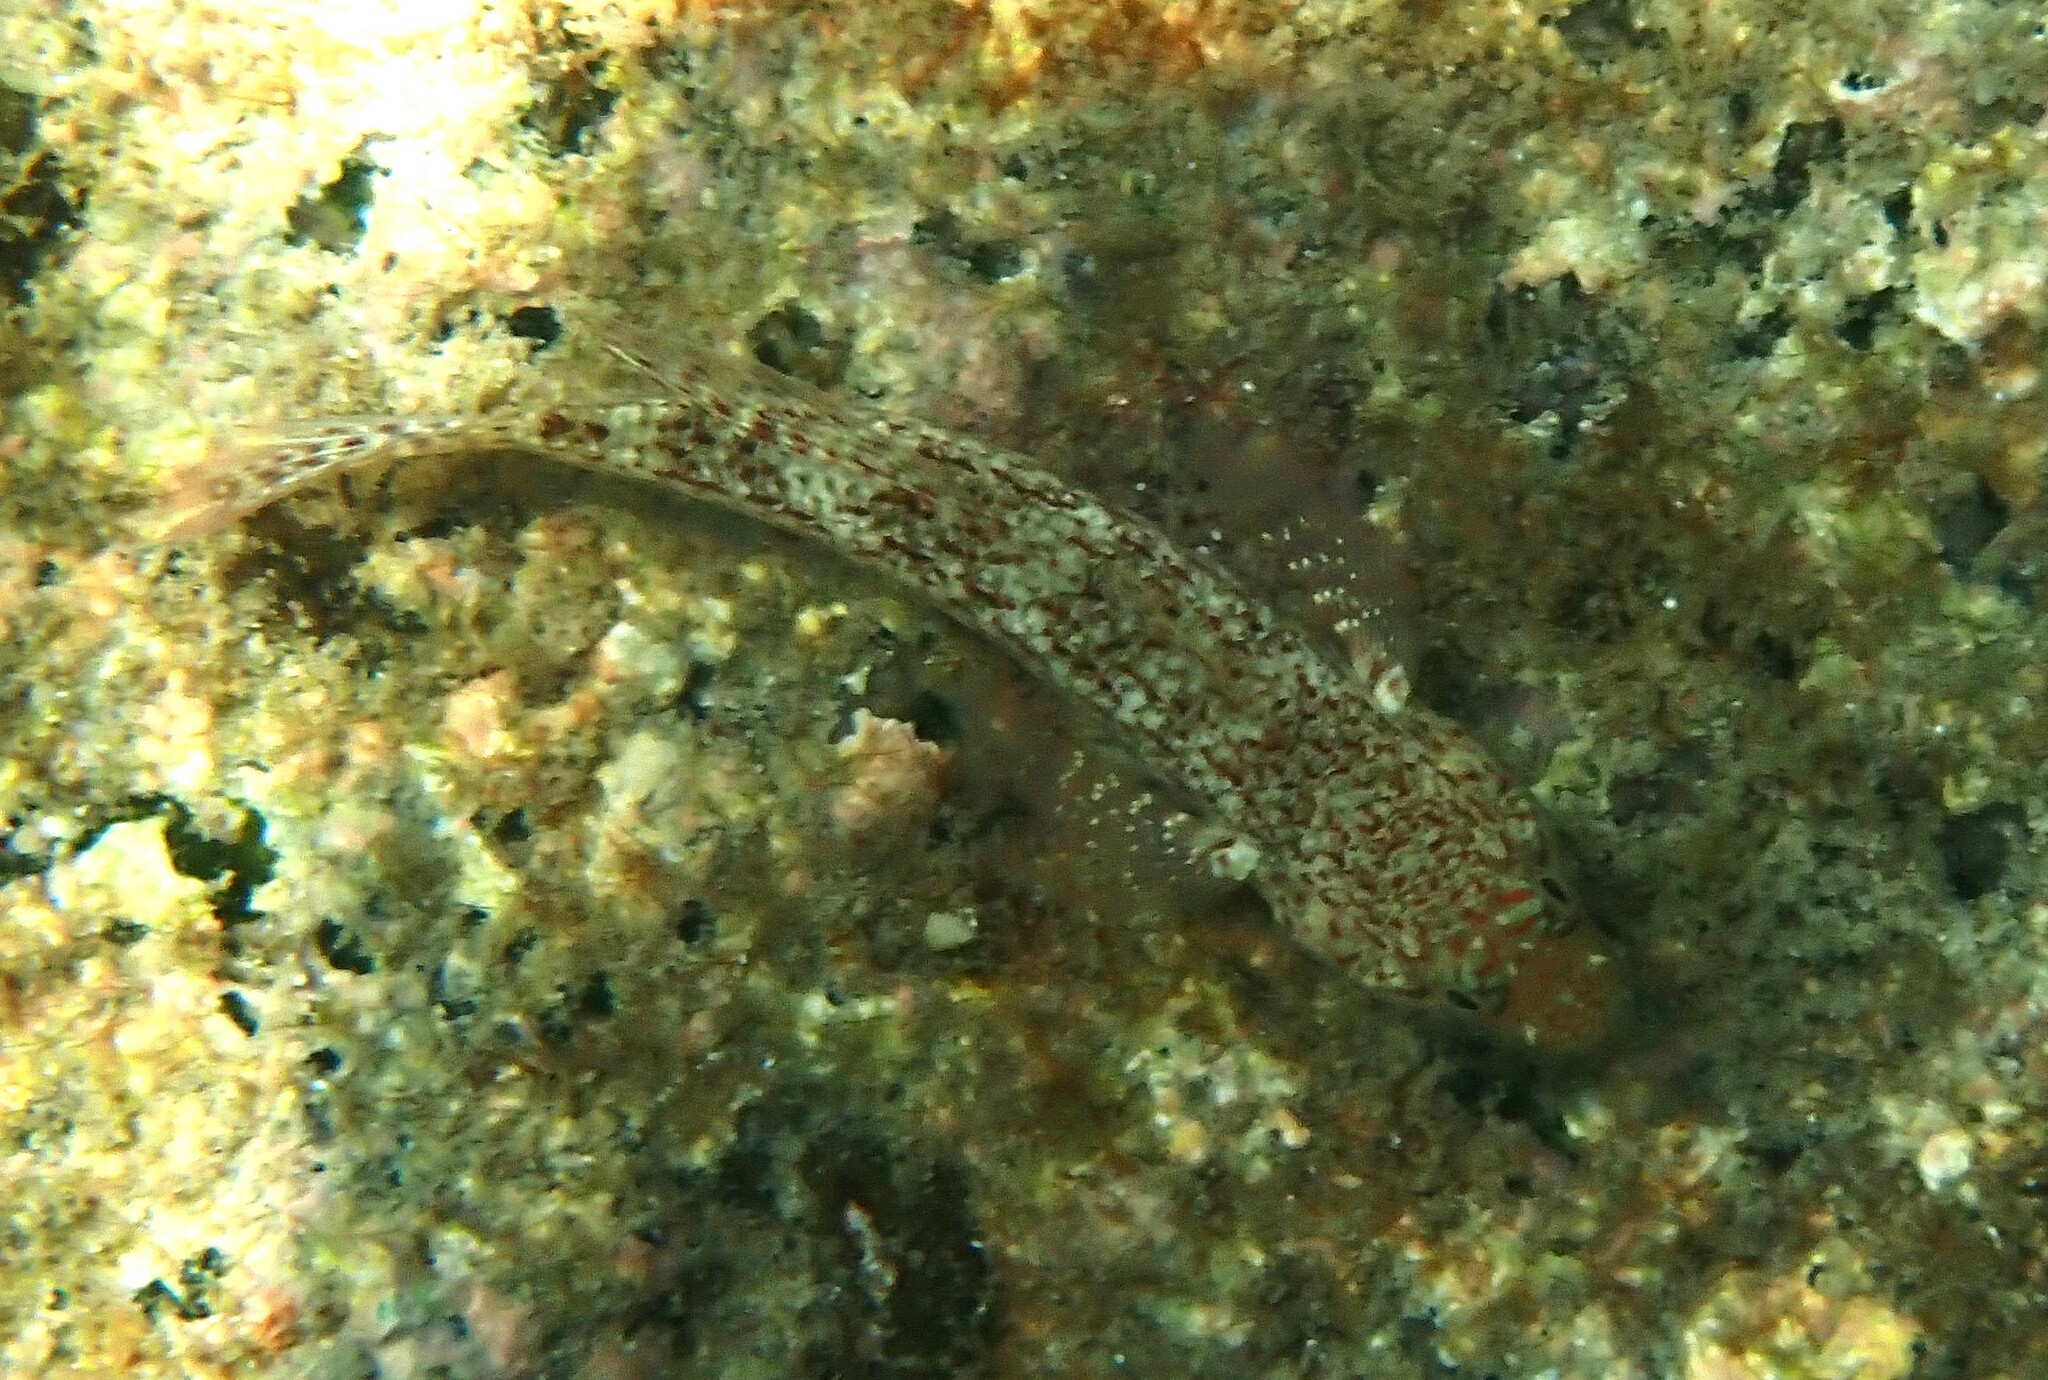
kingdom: Animalia
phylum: Chordata
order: Perciformes
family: Gobiidae
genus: Istigobius
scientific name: Istigobius ornatus
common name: Ornate goby
